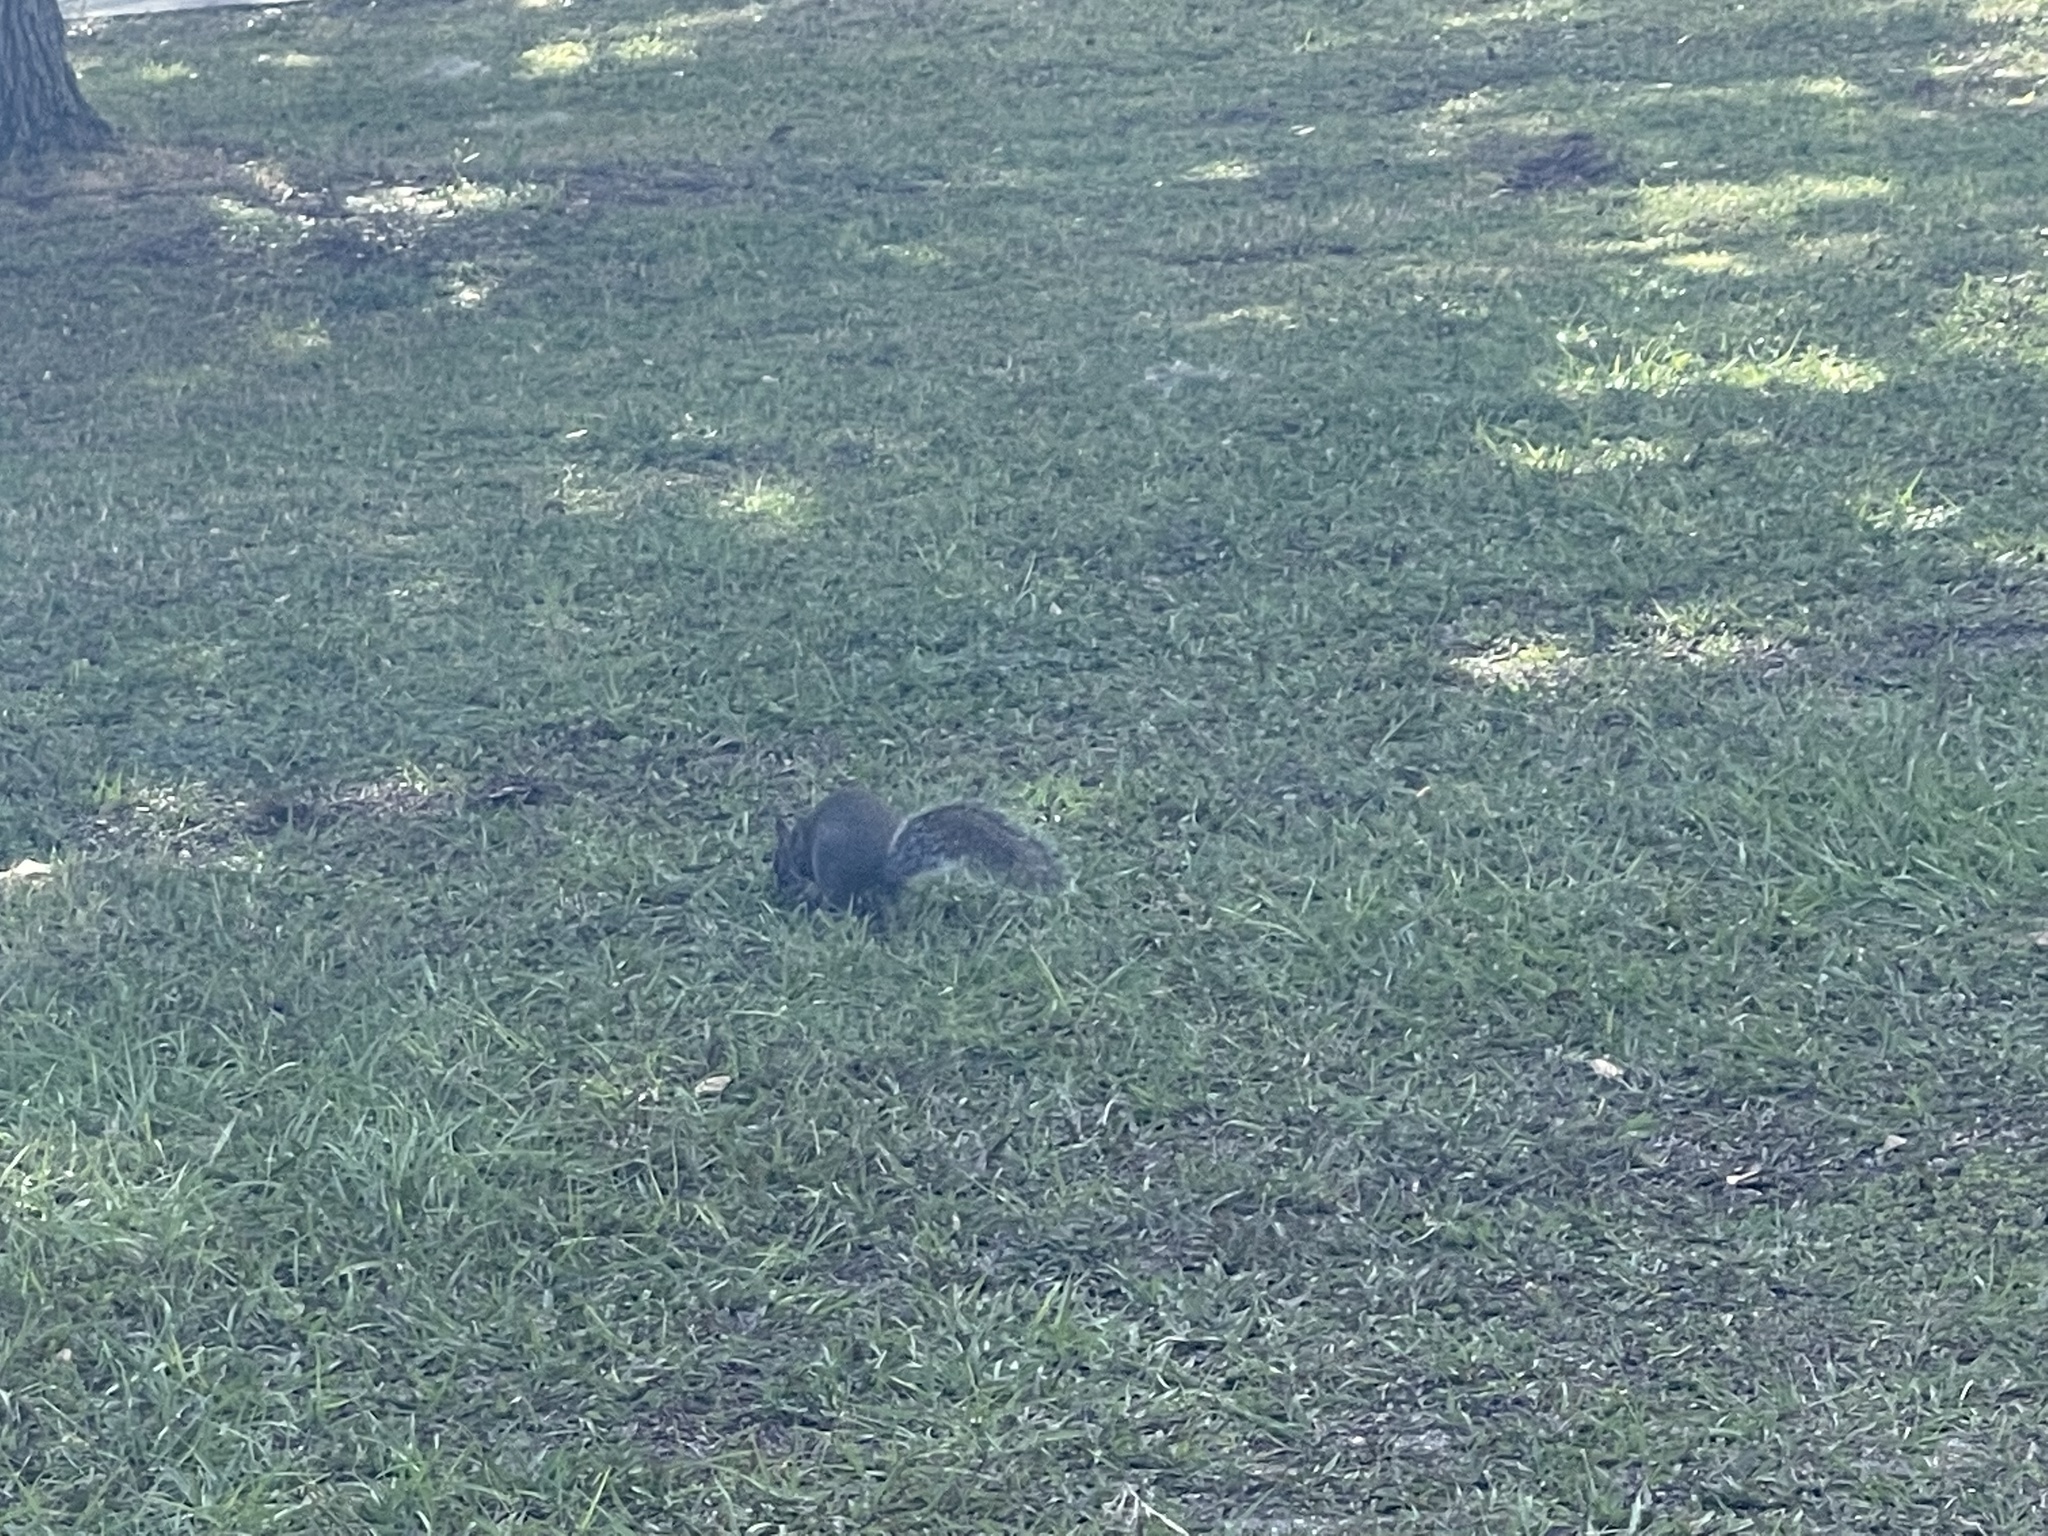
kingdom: Animalia
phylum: Chordata
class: Mammalia
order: Rodentia
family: Sciuridae
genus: Sciurus
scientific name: Sciurus carolinensis
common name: Eastern gray squirrel
